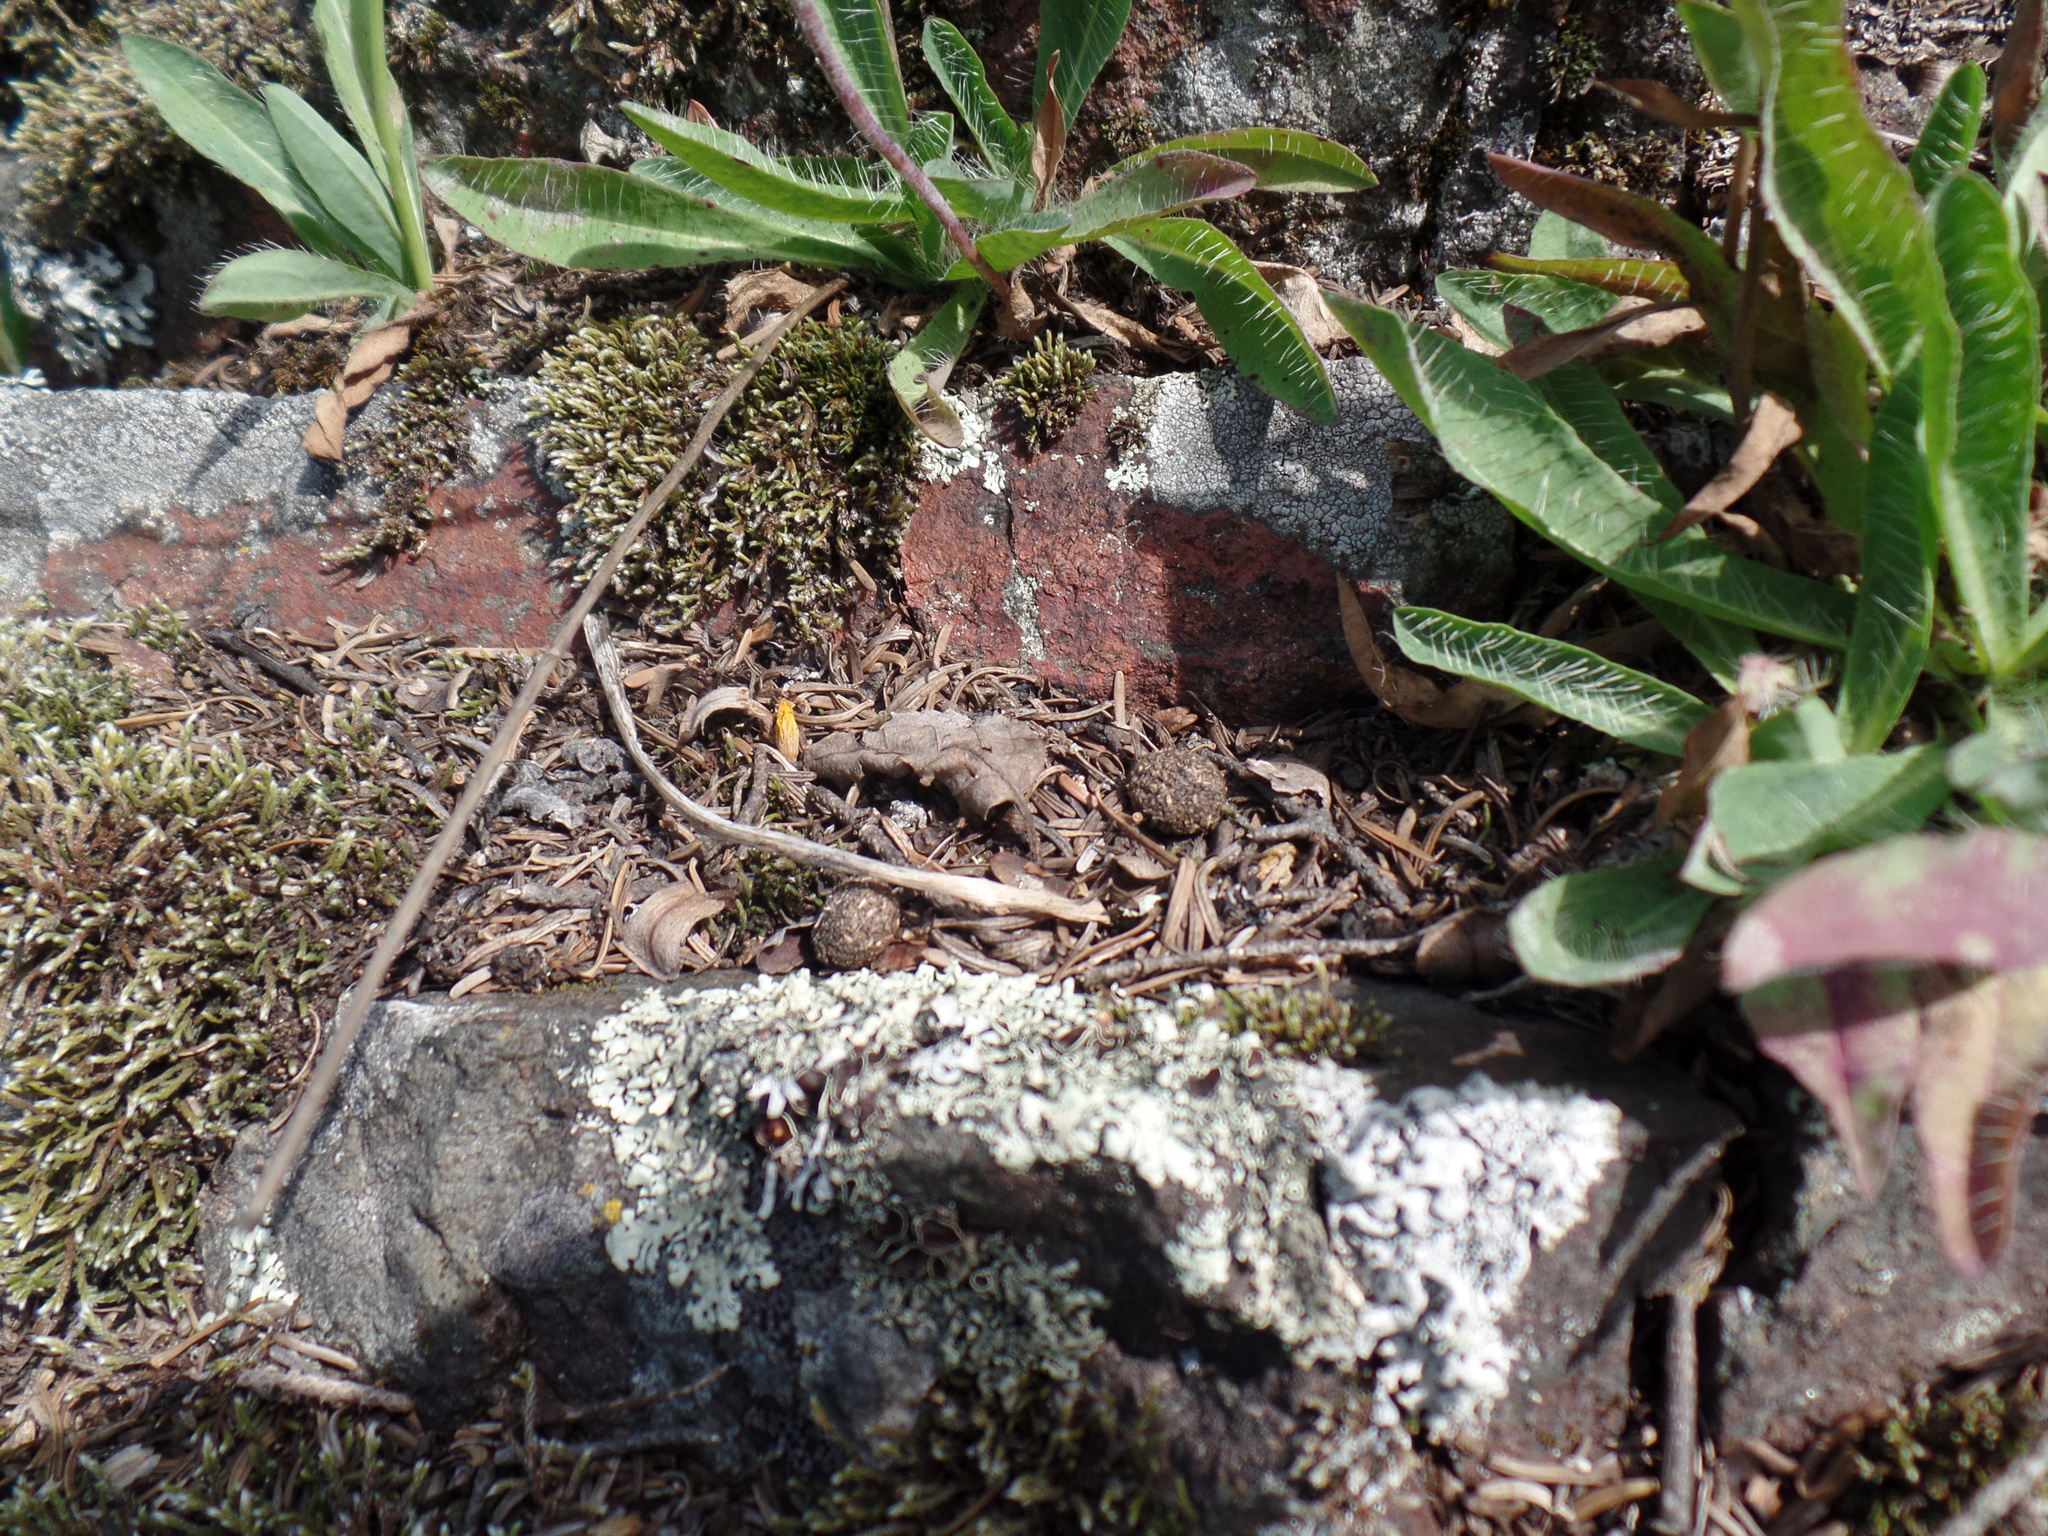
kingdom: Animalia
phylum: Chordata
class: Mammalia
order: Lagomorpha
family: Leporidae
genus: Lepus
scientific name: Lepus americanus
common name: Snowshoe hare
